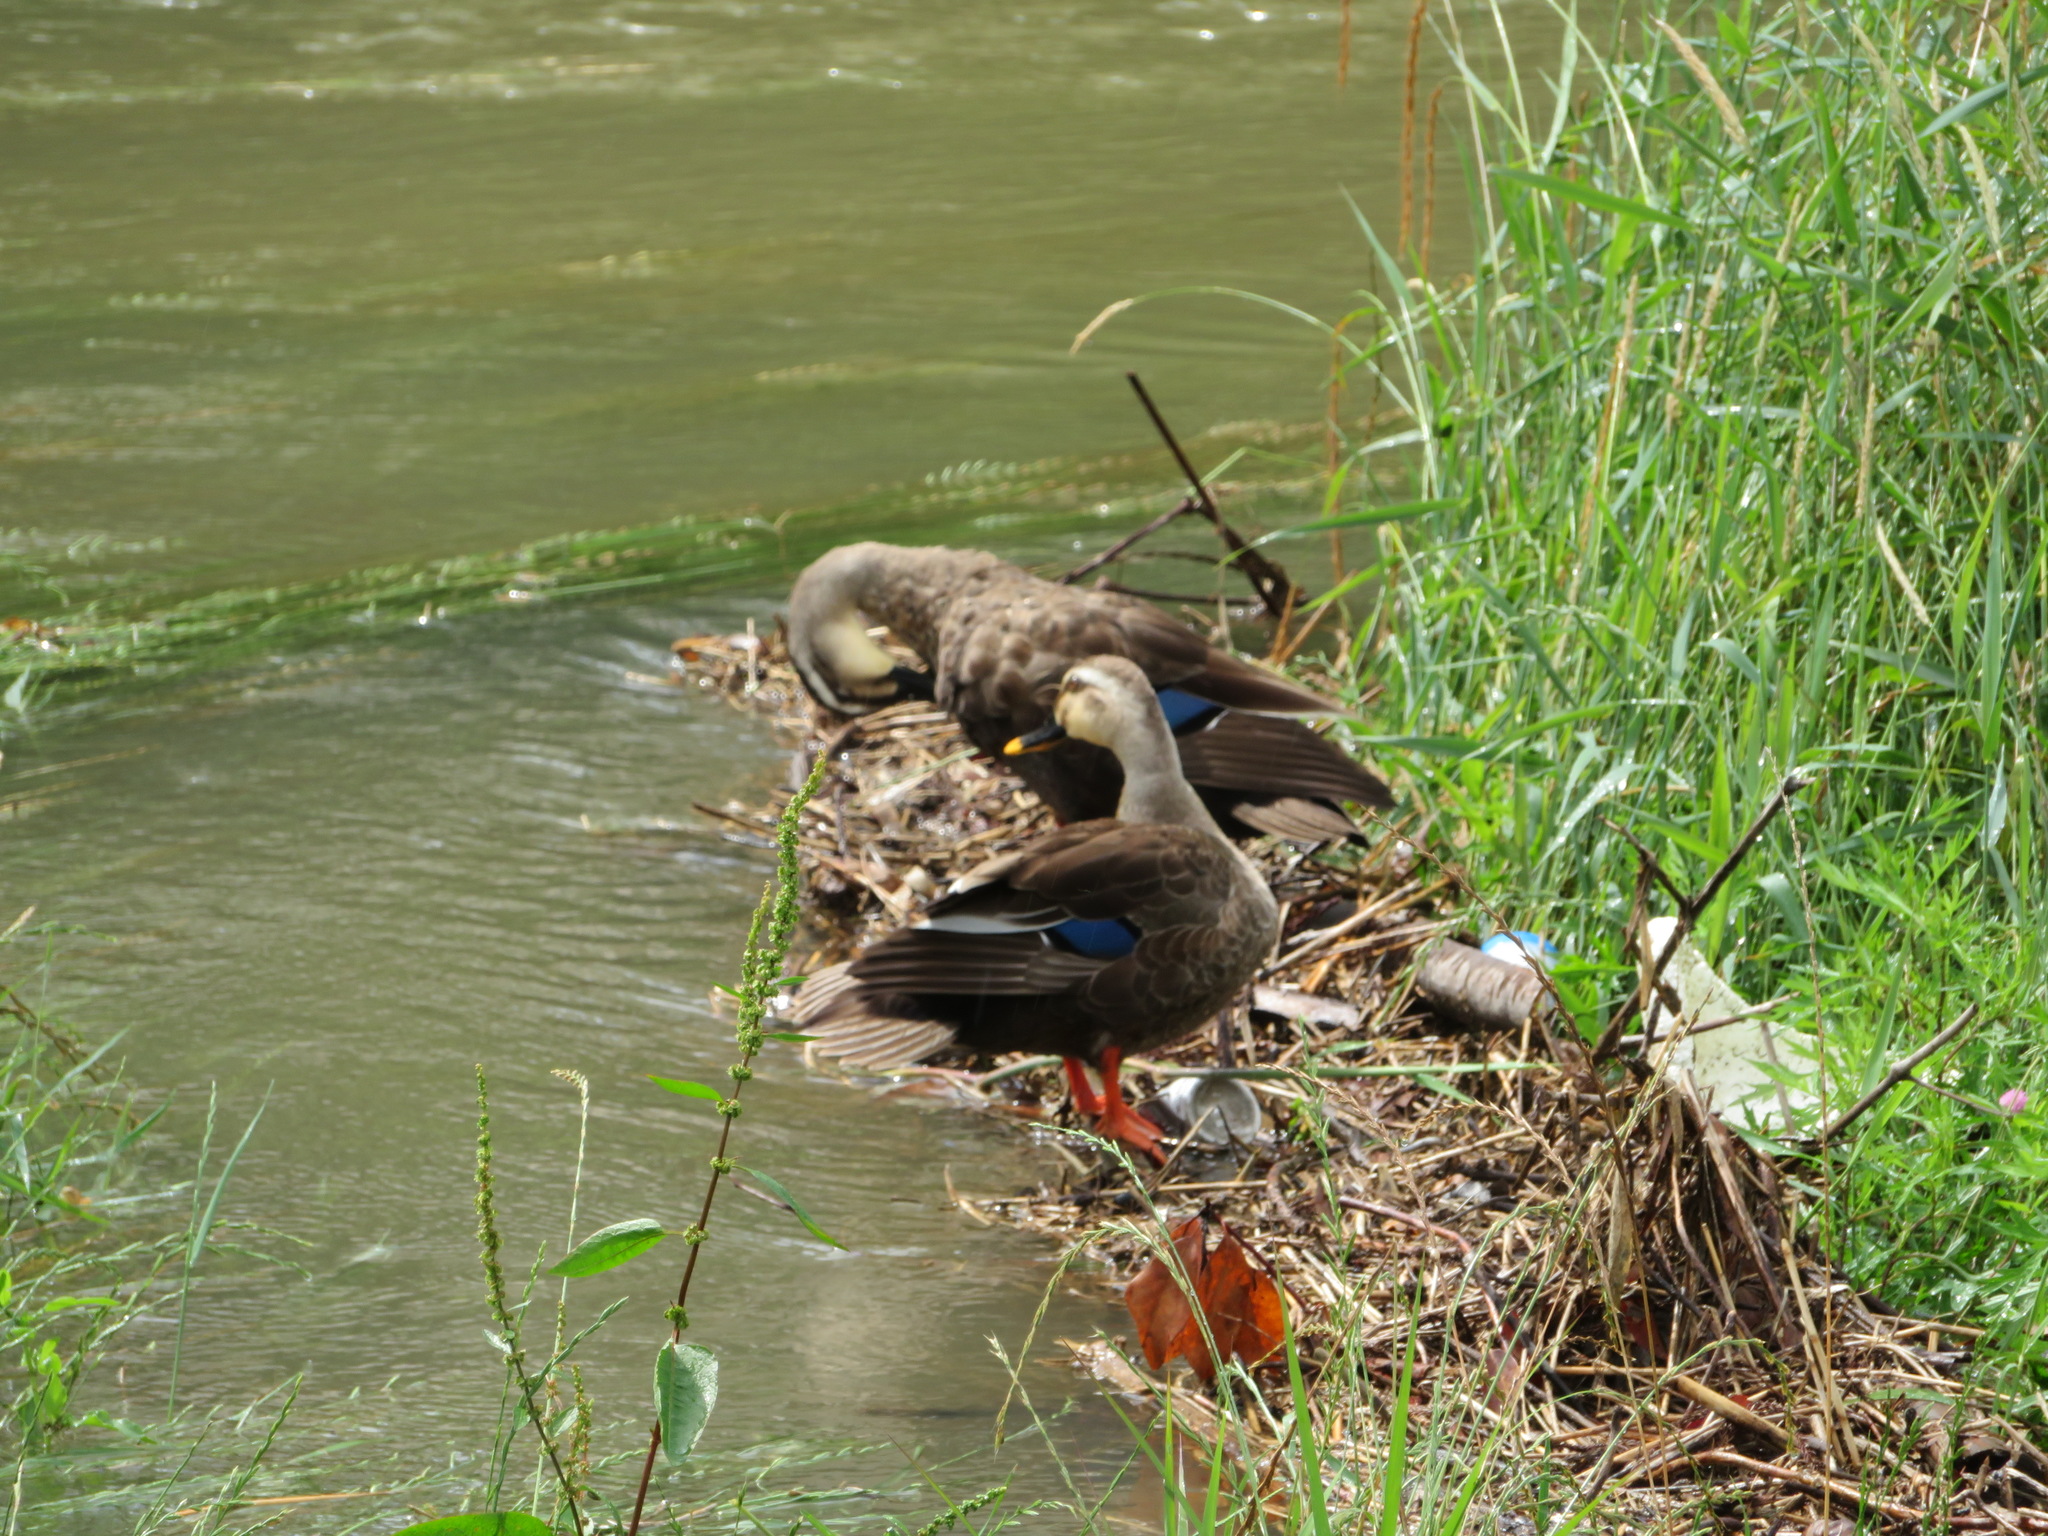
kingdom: Animalia
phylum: Chordata
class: Aves
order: Anseriformes
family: Anatidae
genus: Anas
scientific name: Anas zonorhyncha
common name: Eastern spot-billed duck
